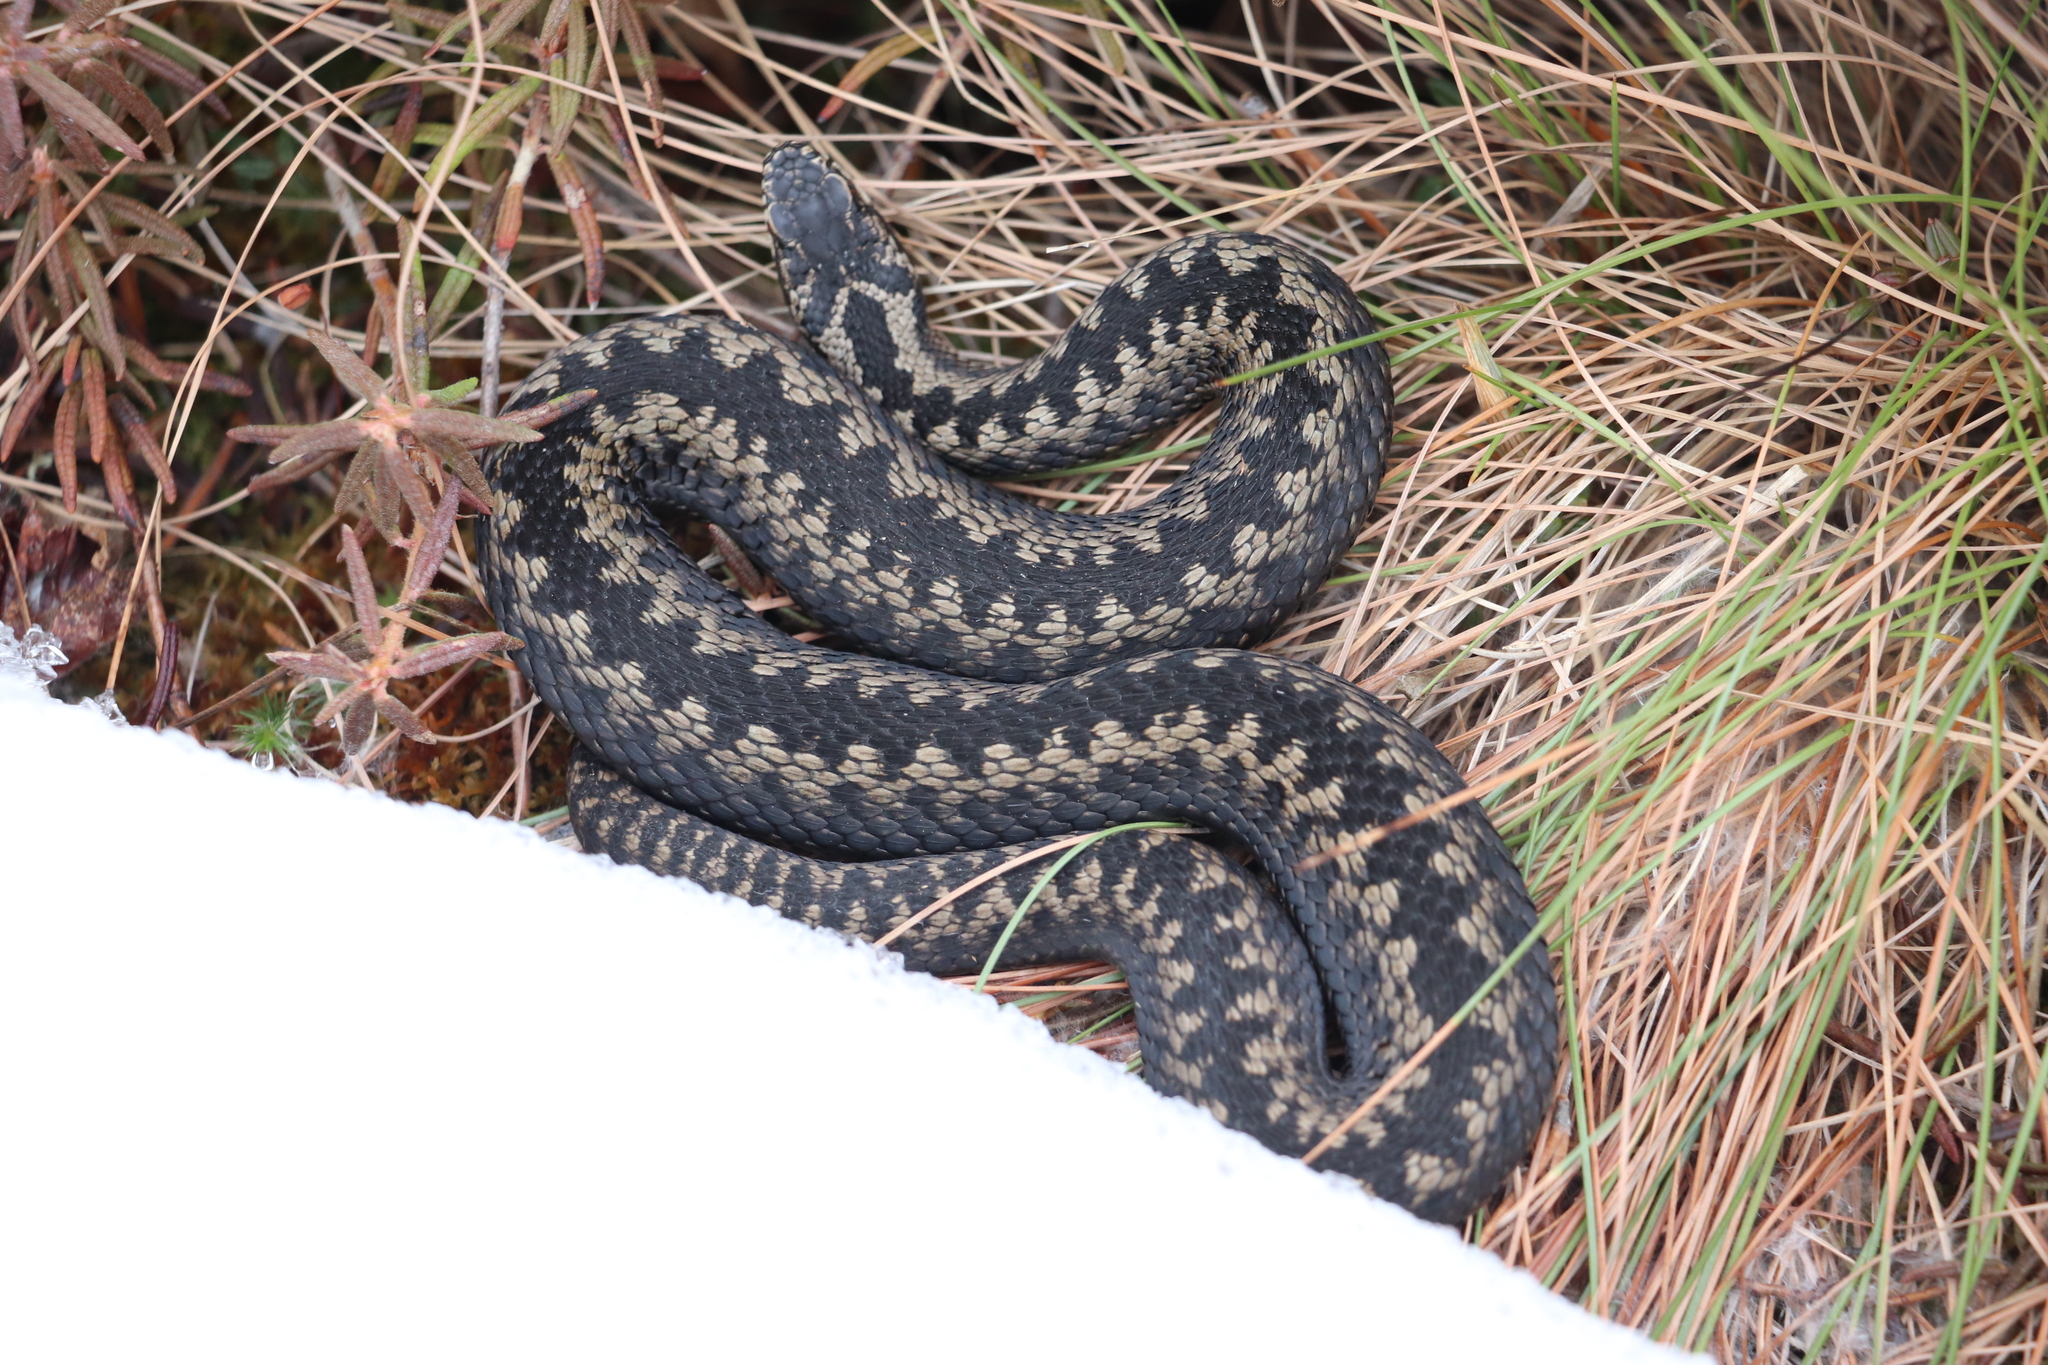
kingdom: Animalia
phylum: Chordata
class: Squamata
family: Viperidae
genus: Vipera
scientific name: Vipera berus
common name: Adder
